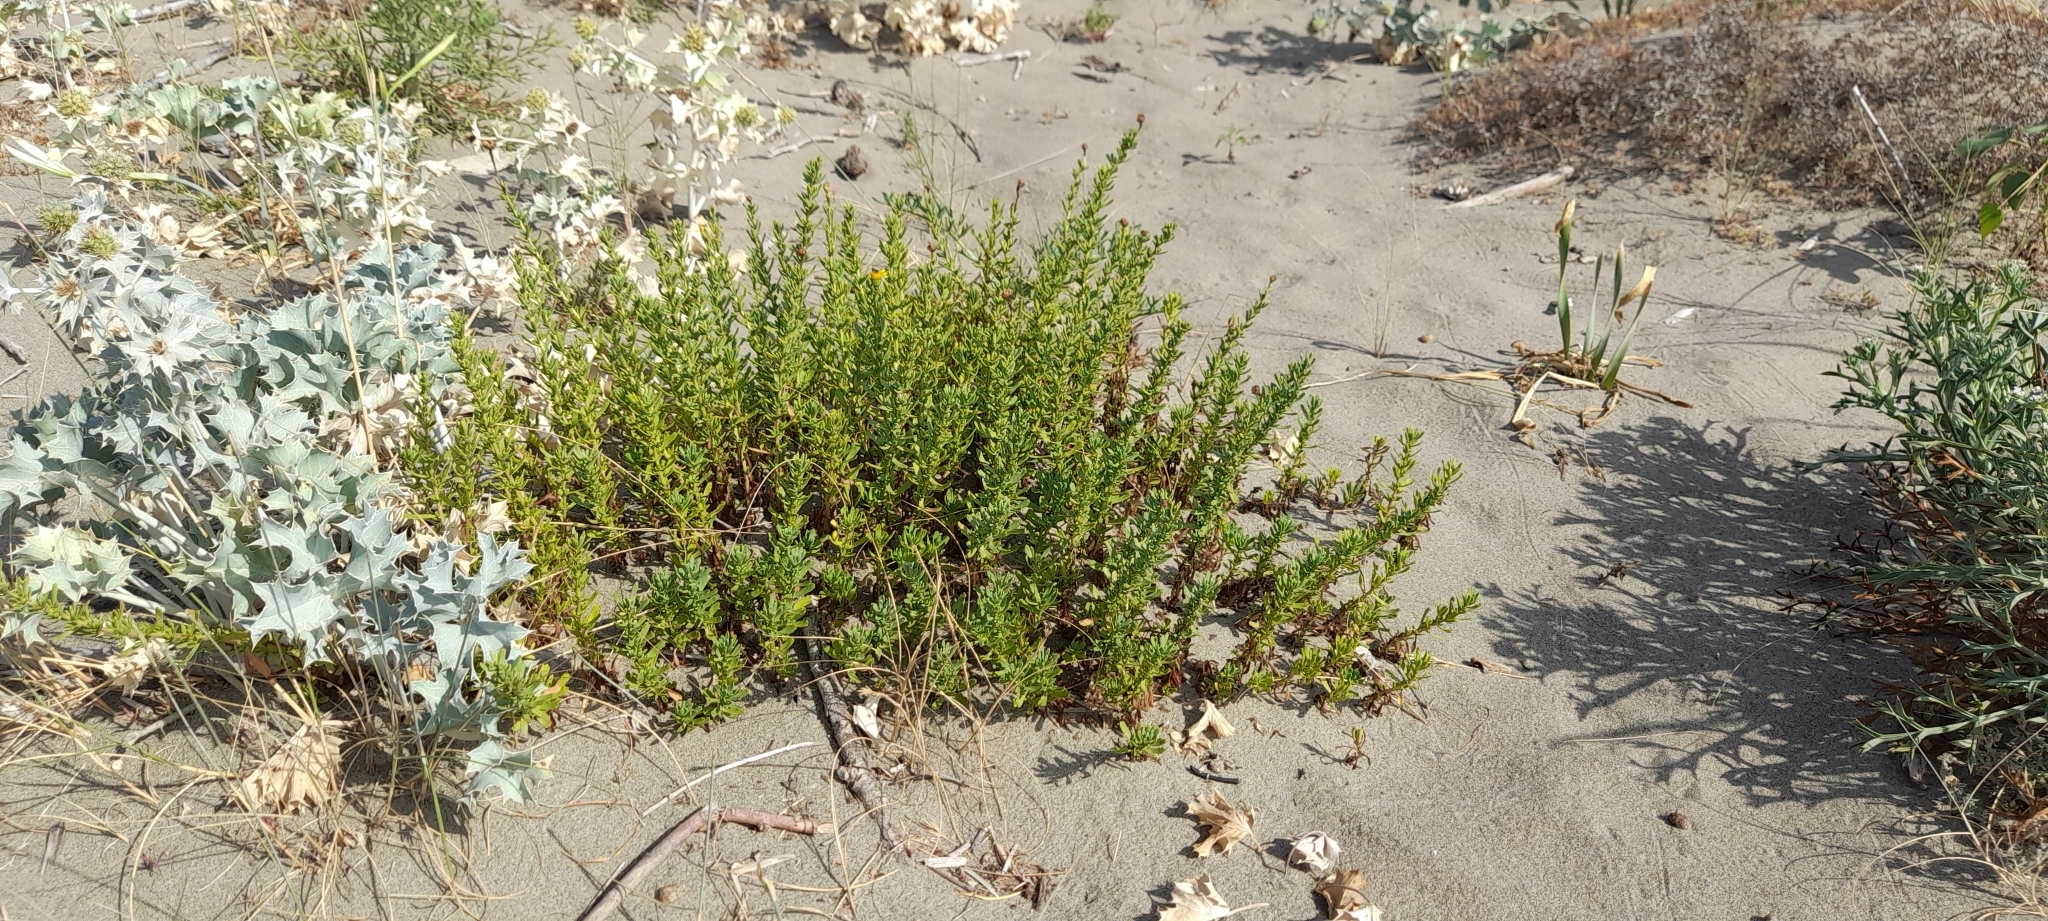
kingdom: Plantae
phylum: Tracheophyta
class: Magnoliopsida
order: Asterales
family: Asteraceae
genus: Limbarda
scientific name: Limbarda crithmoides
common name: Golden samphire
